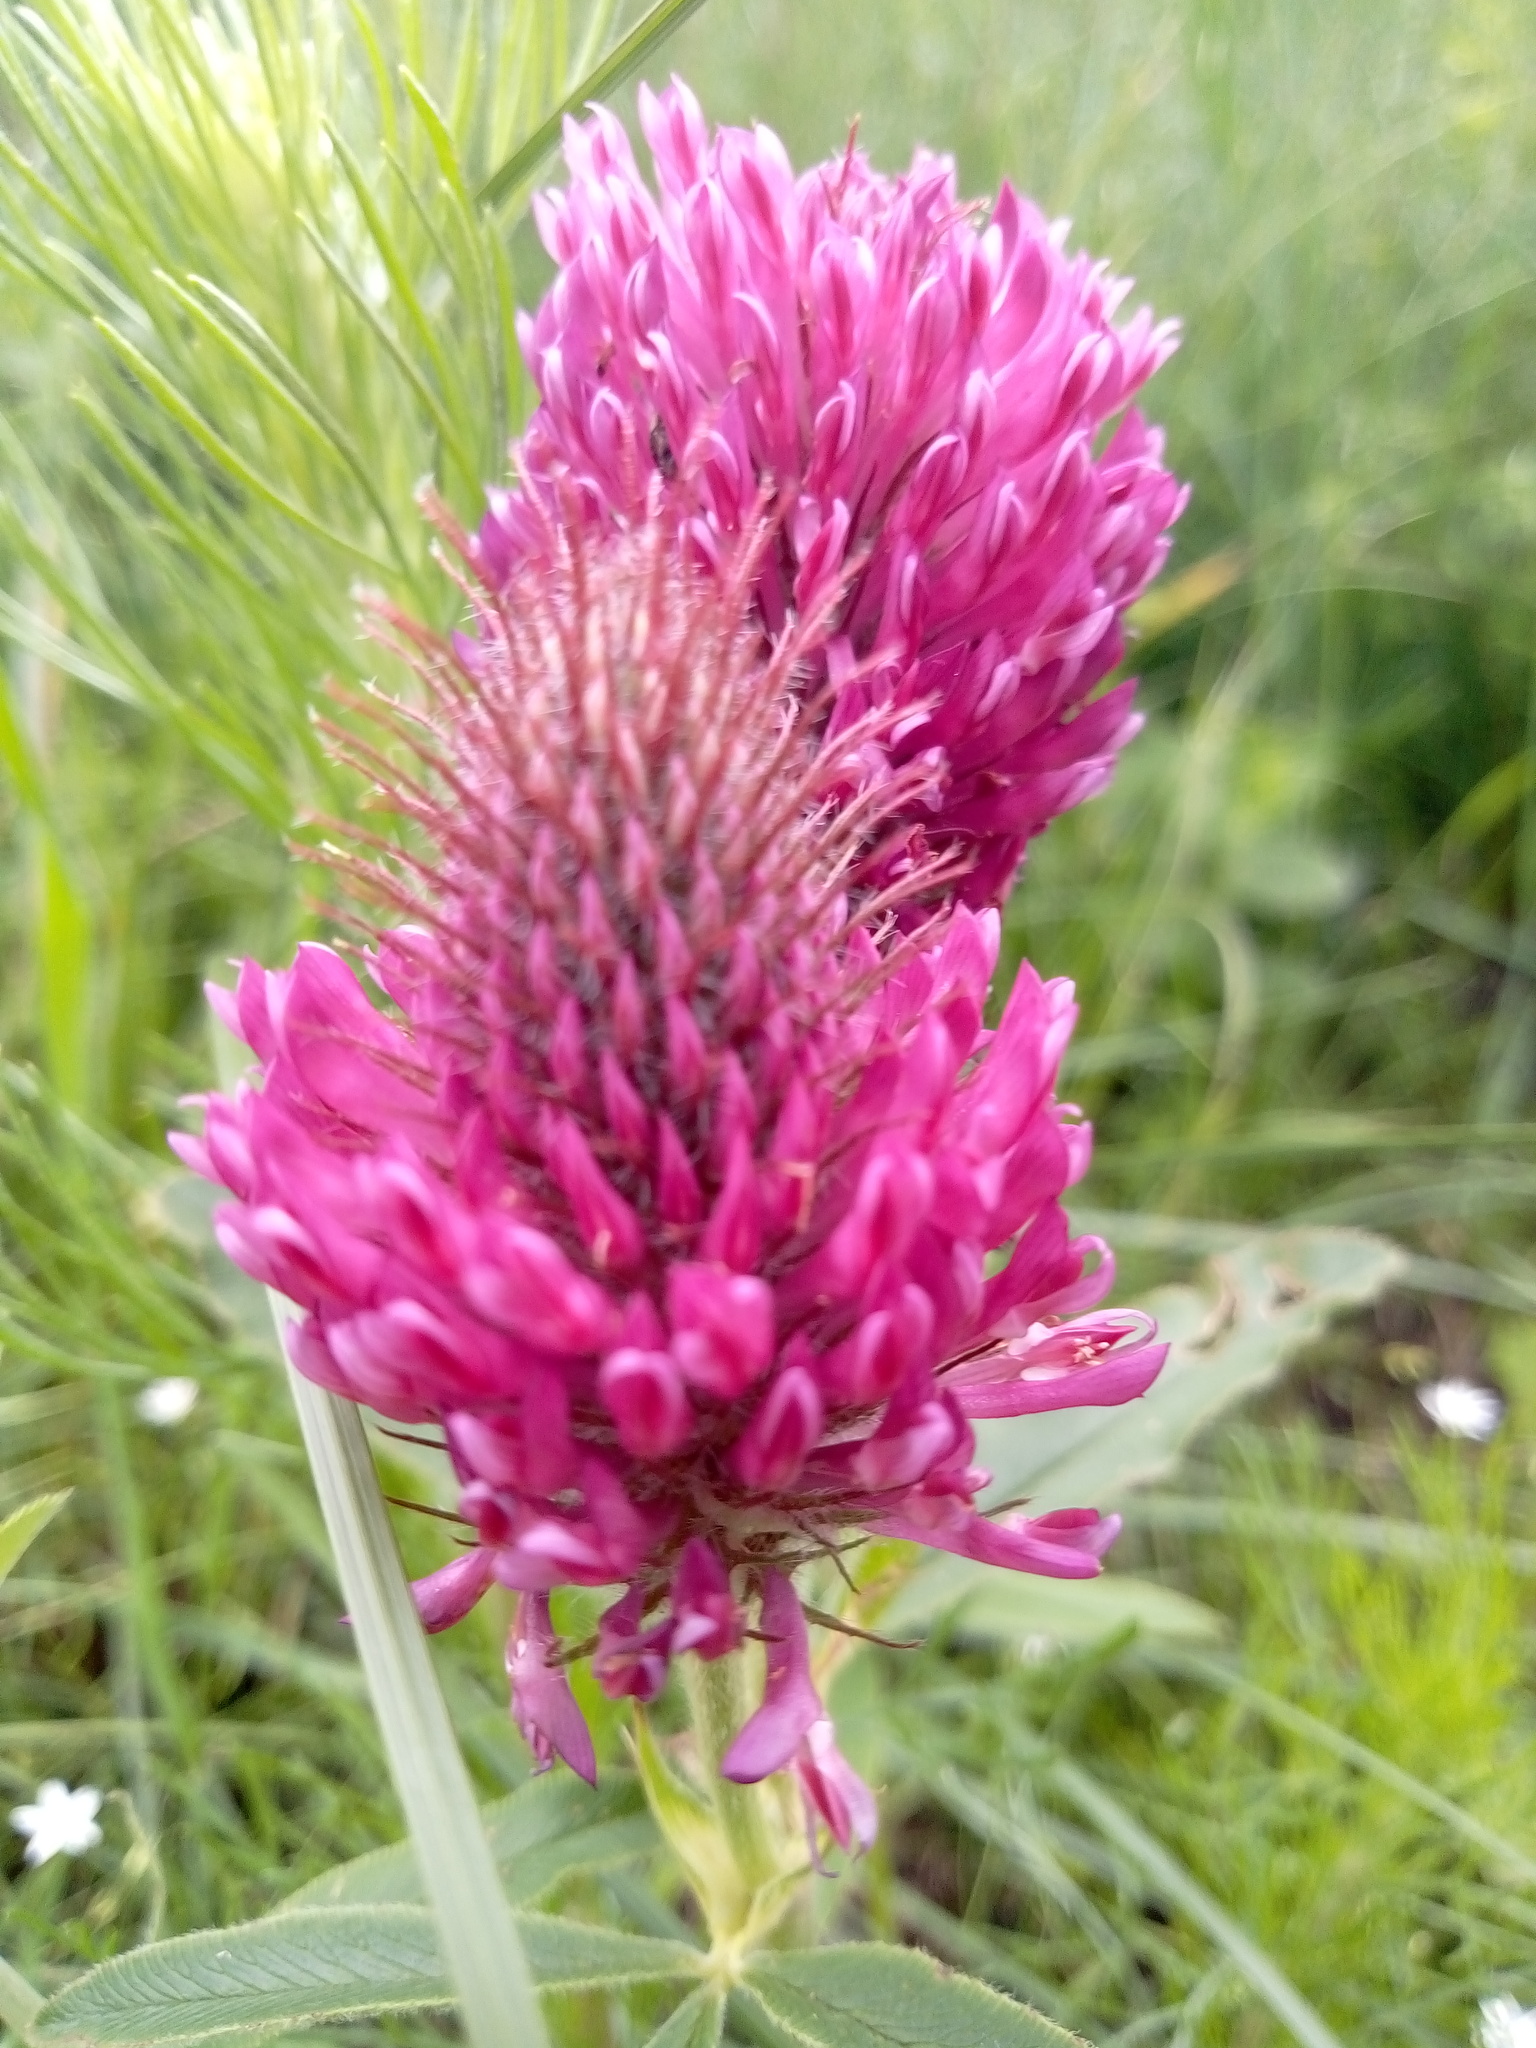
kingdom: Plantae
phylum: Tracheophyta
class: Magnoliopsida
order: Fabales
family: Fabaceae
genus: Trifolium
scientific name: Trifolium alpestre
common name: Owl-head clover
